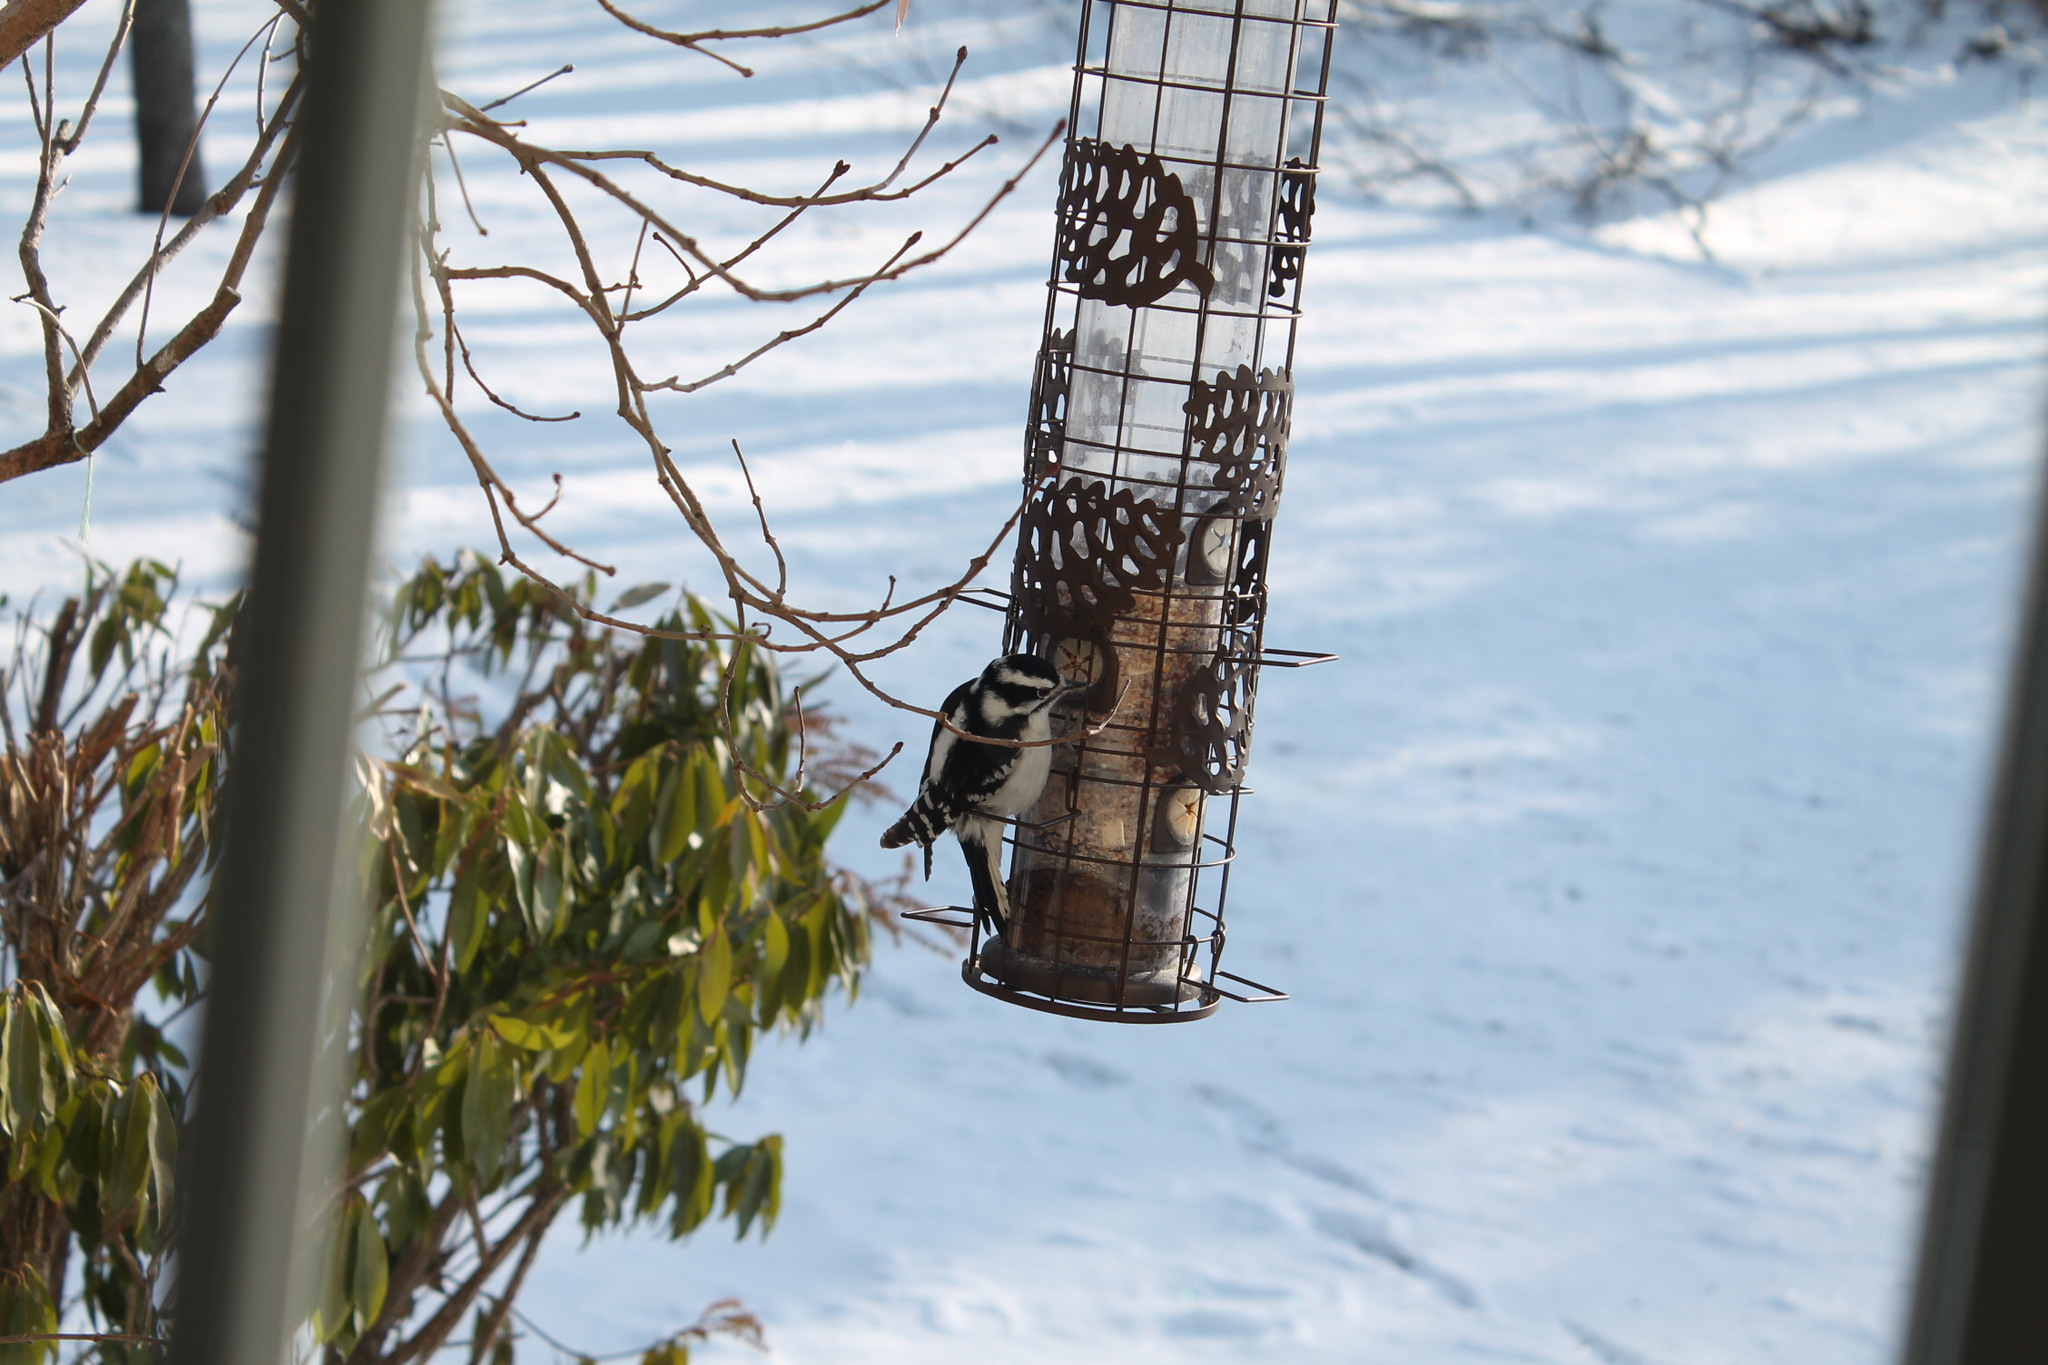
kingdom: Animalia
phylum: Chordata
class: Aves
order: Piciformes
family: Picidae
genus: Dryobates
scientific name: Dryobates pubescens
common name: Downy woodpecker
